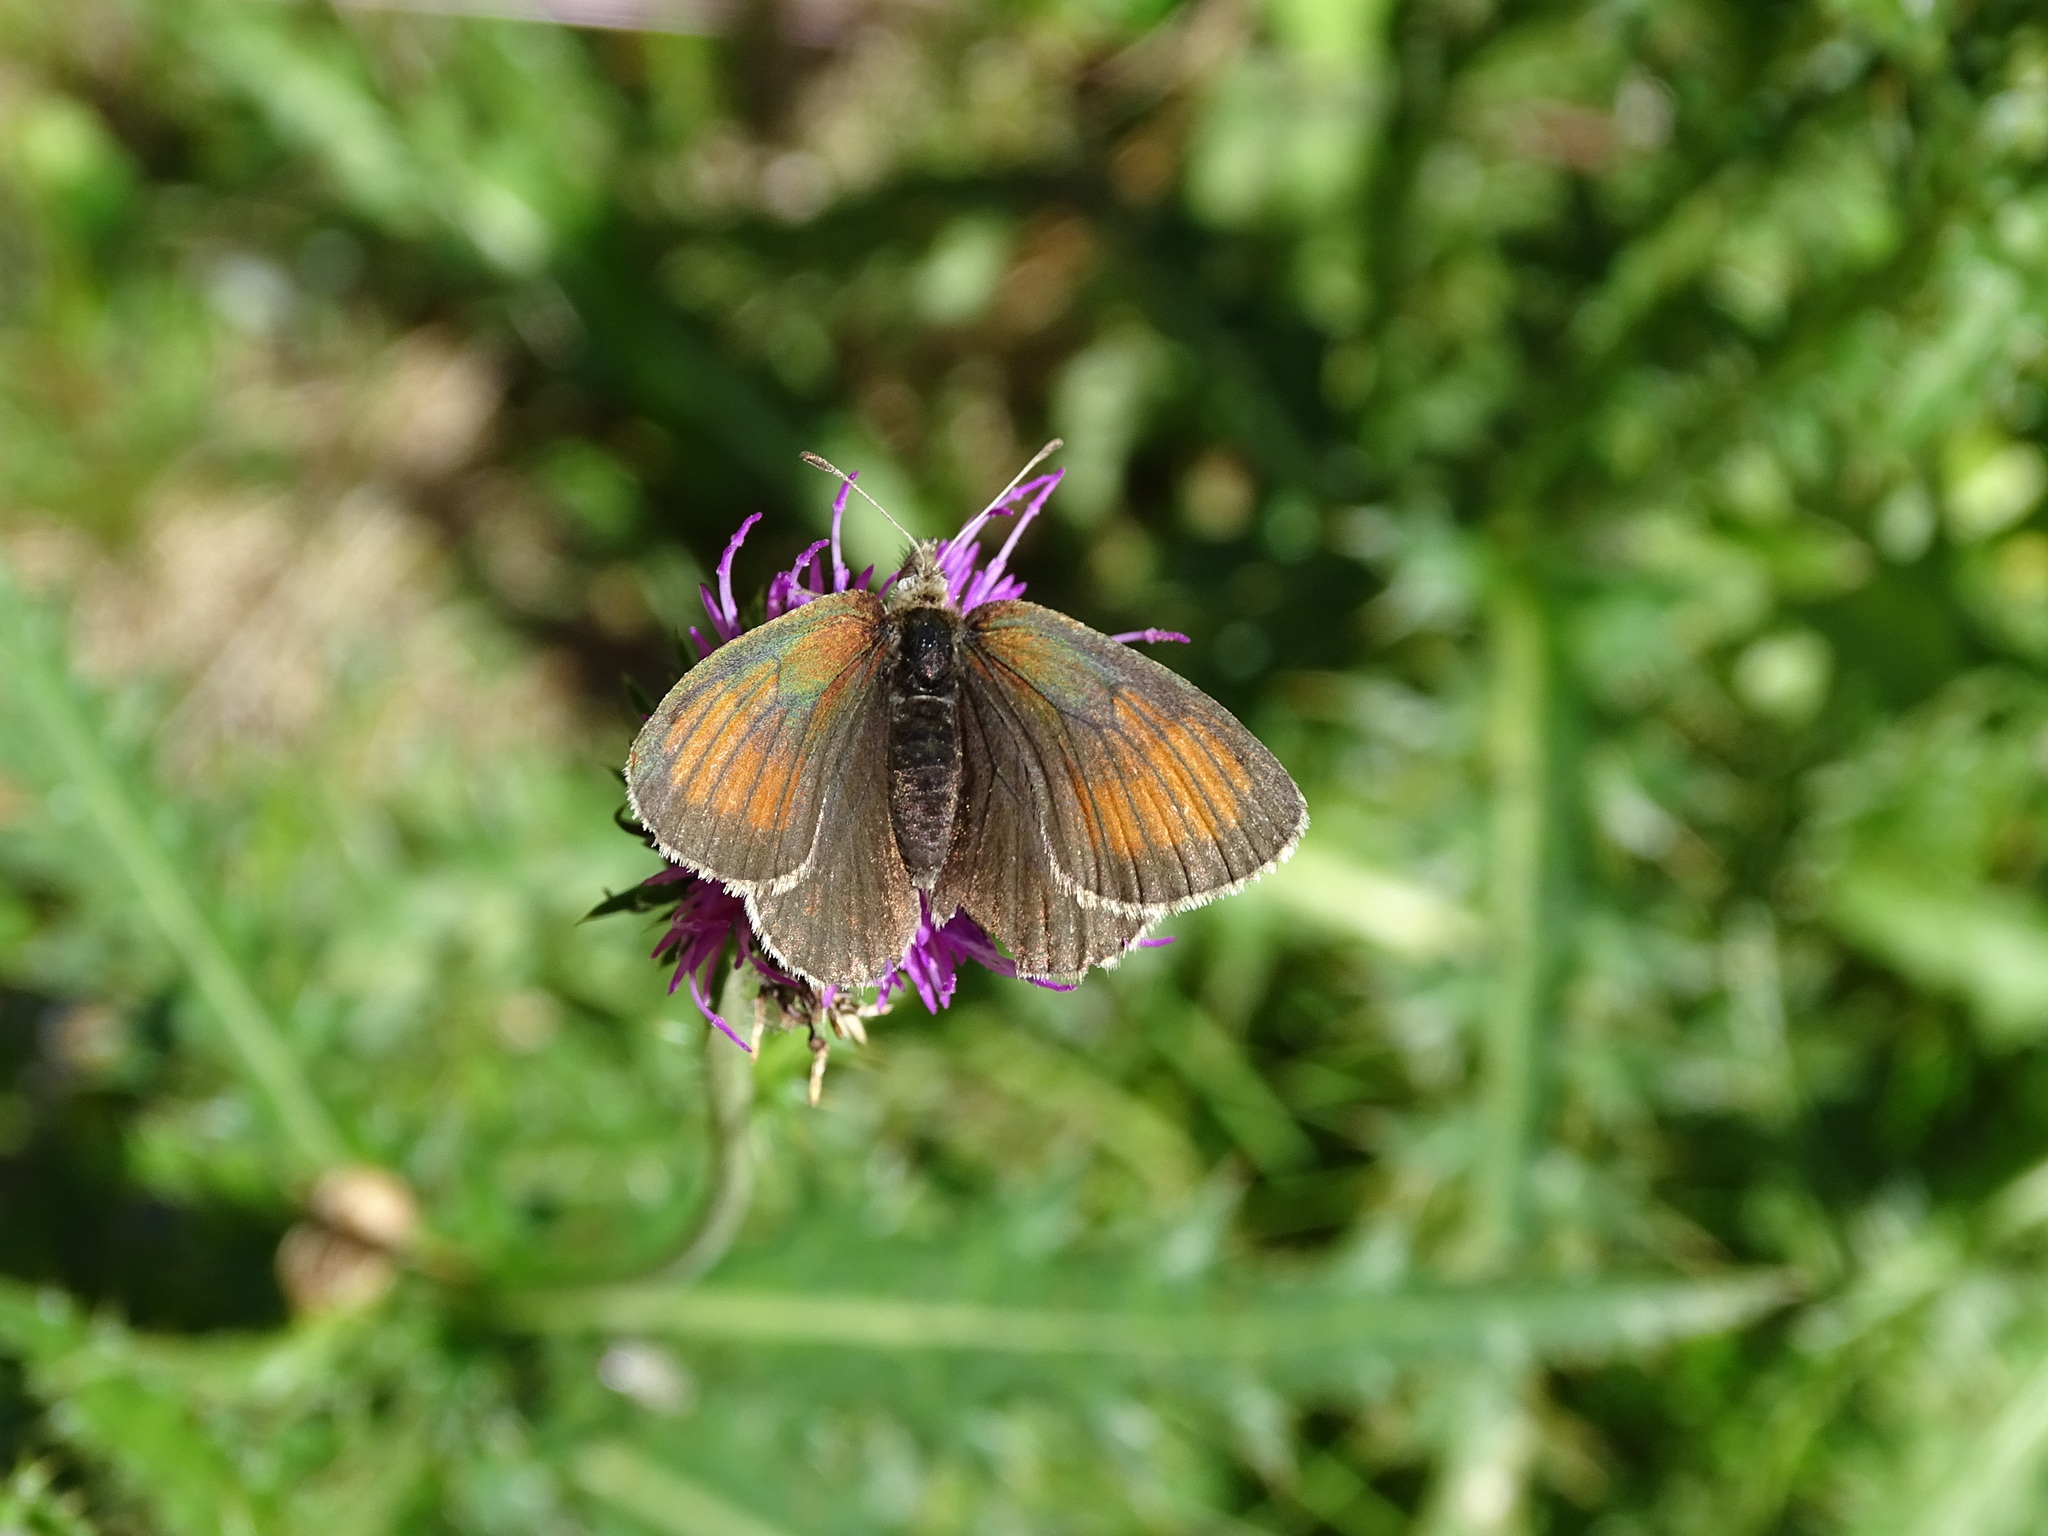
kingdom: Animalia
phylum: Arthropoda
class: Insecta
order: Lepidoptera
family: Nymphalidae
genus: Erebia
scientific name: Erebia tyndarus
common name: Swiss brassy ringlet
